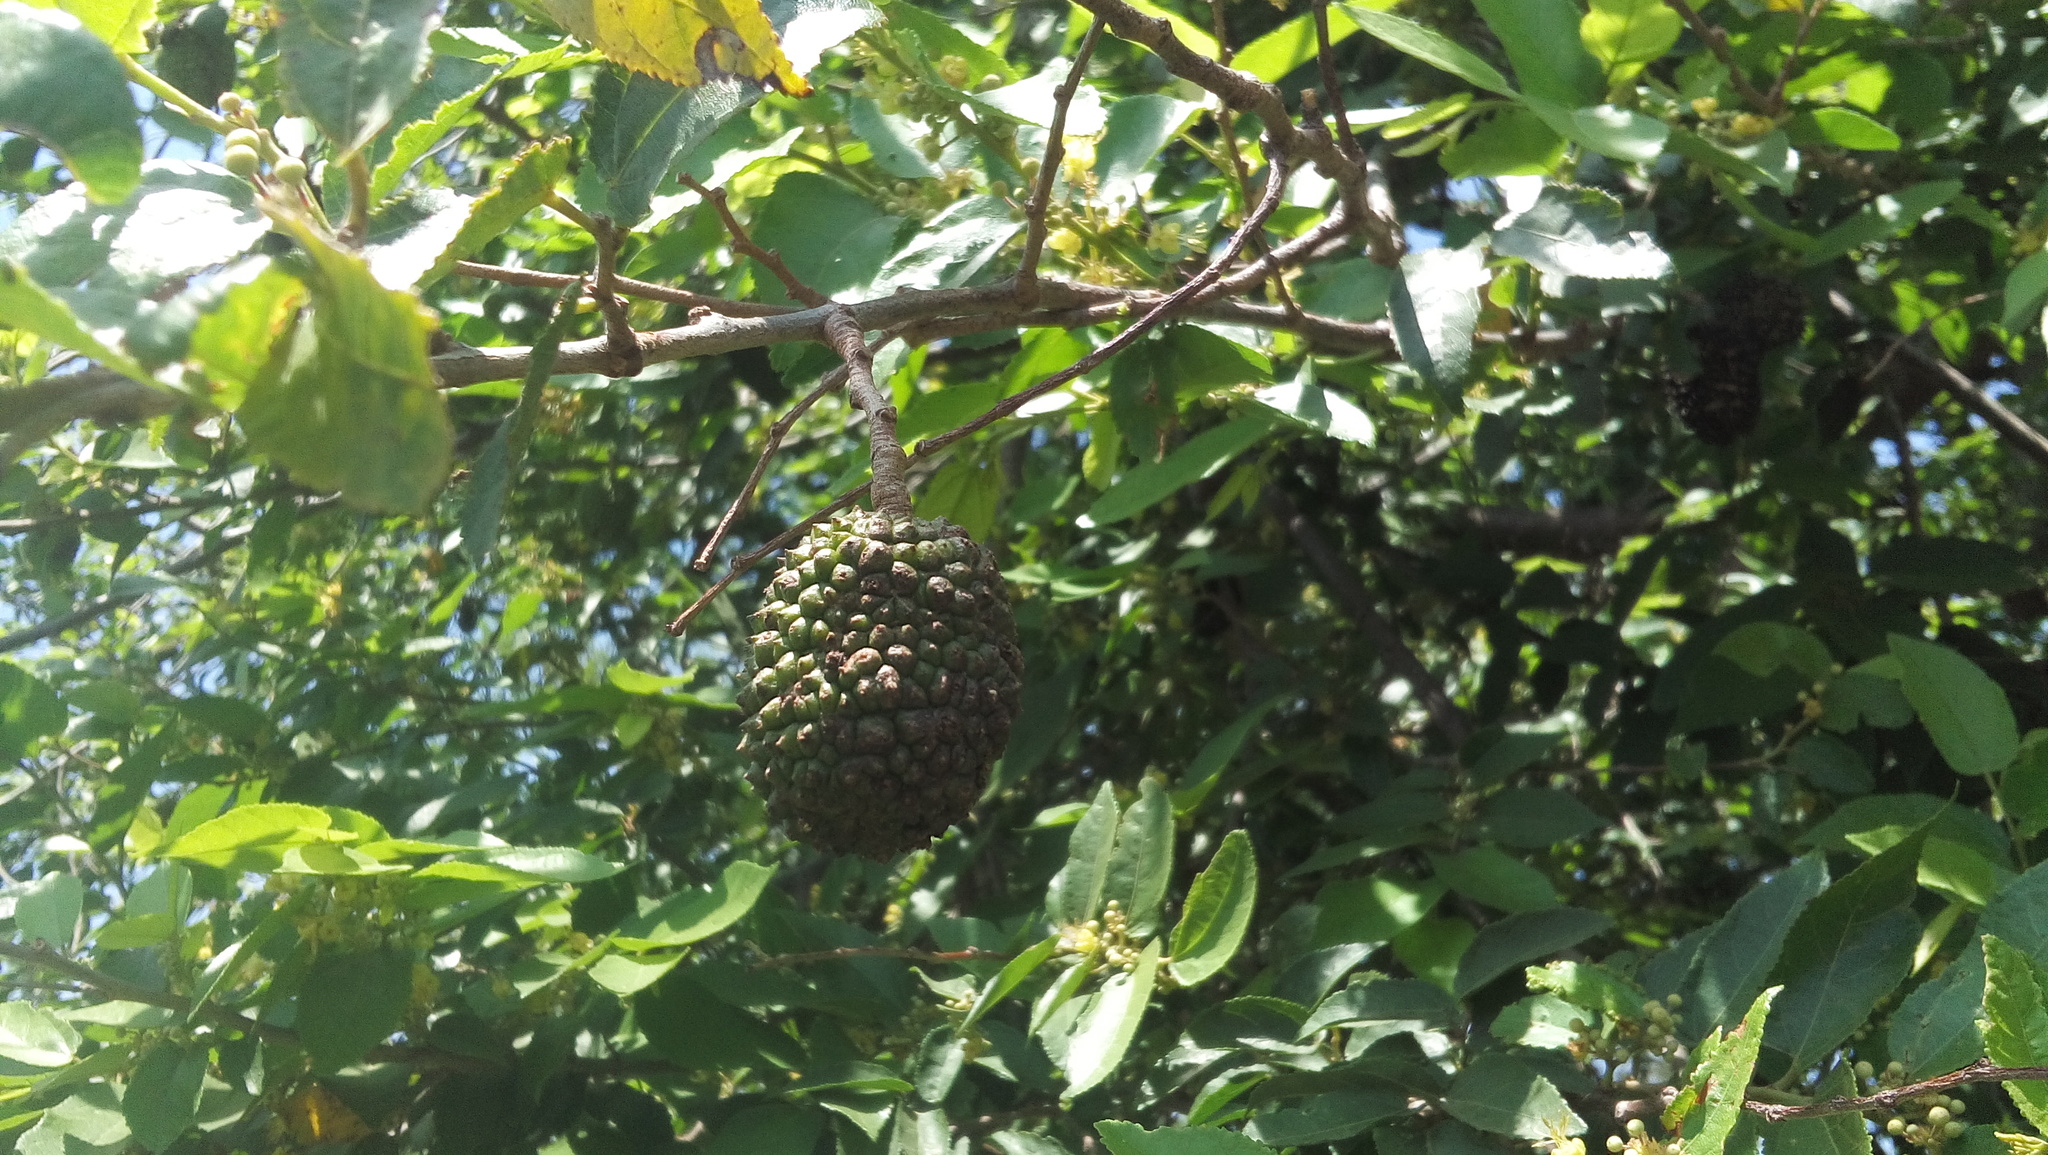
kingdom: Plantae
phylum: Tracheophyta
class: Magnoliopsida
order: Malvales
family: Malvaceae
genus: Guazuma
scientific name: Guazuma ulmifolia
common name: Bastard-cedar
